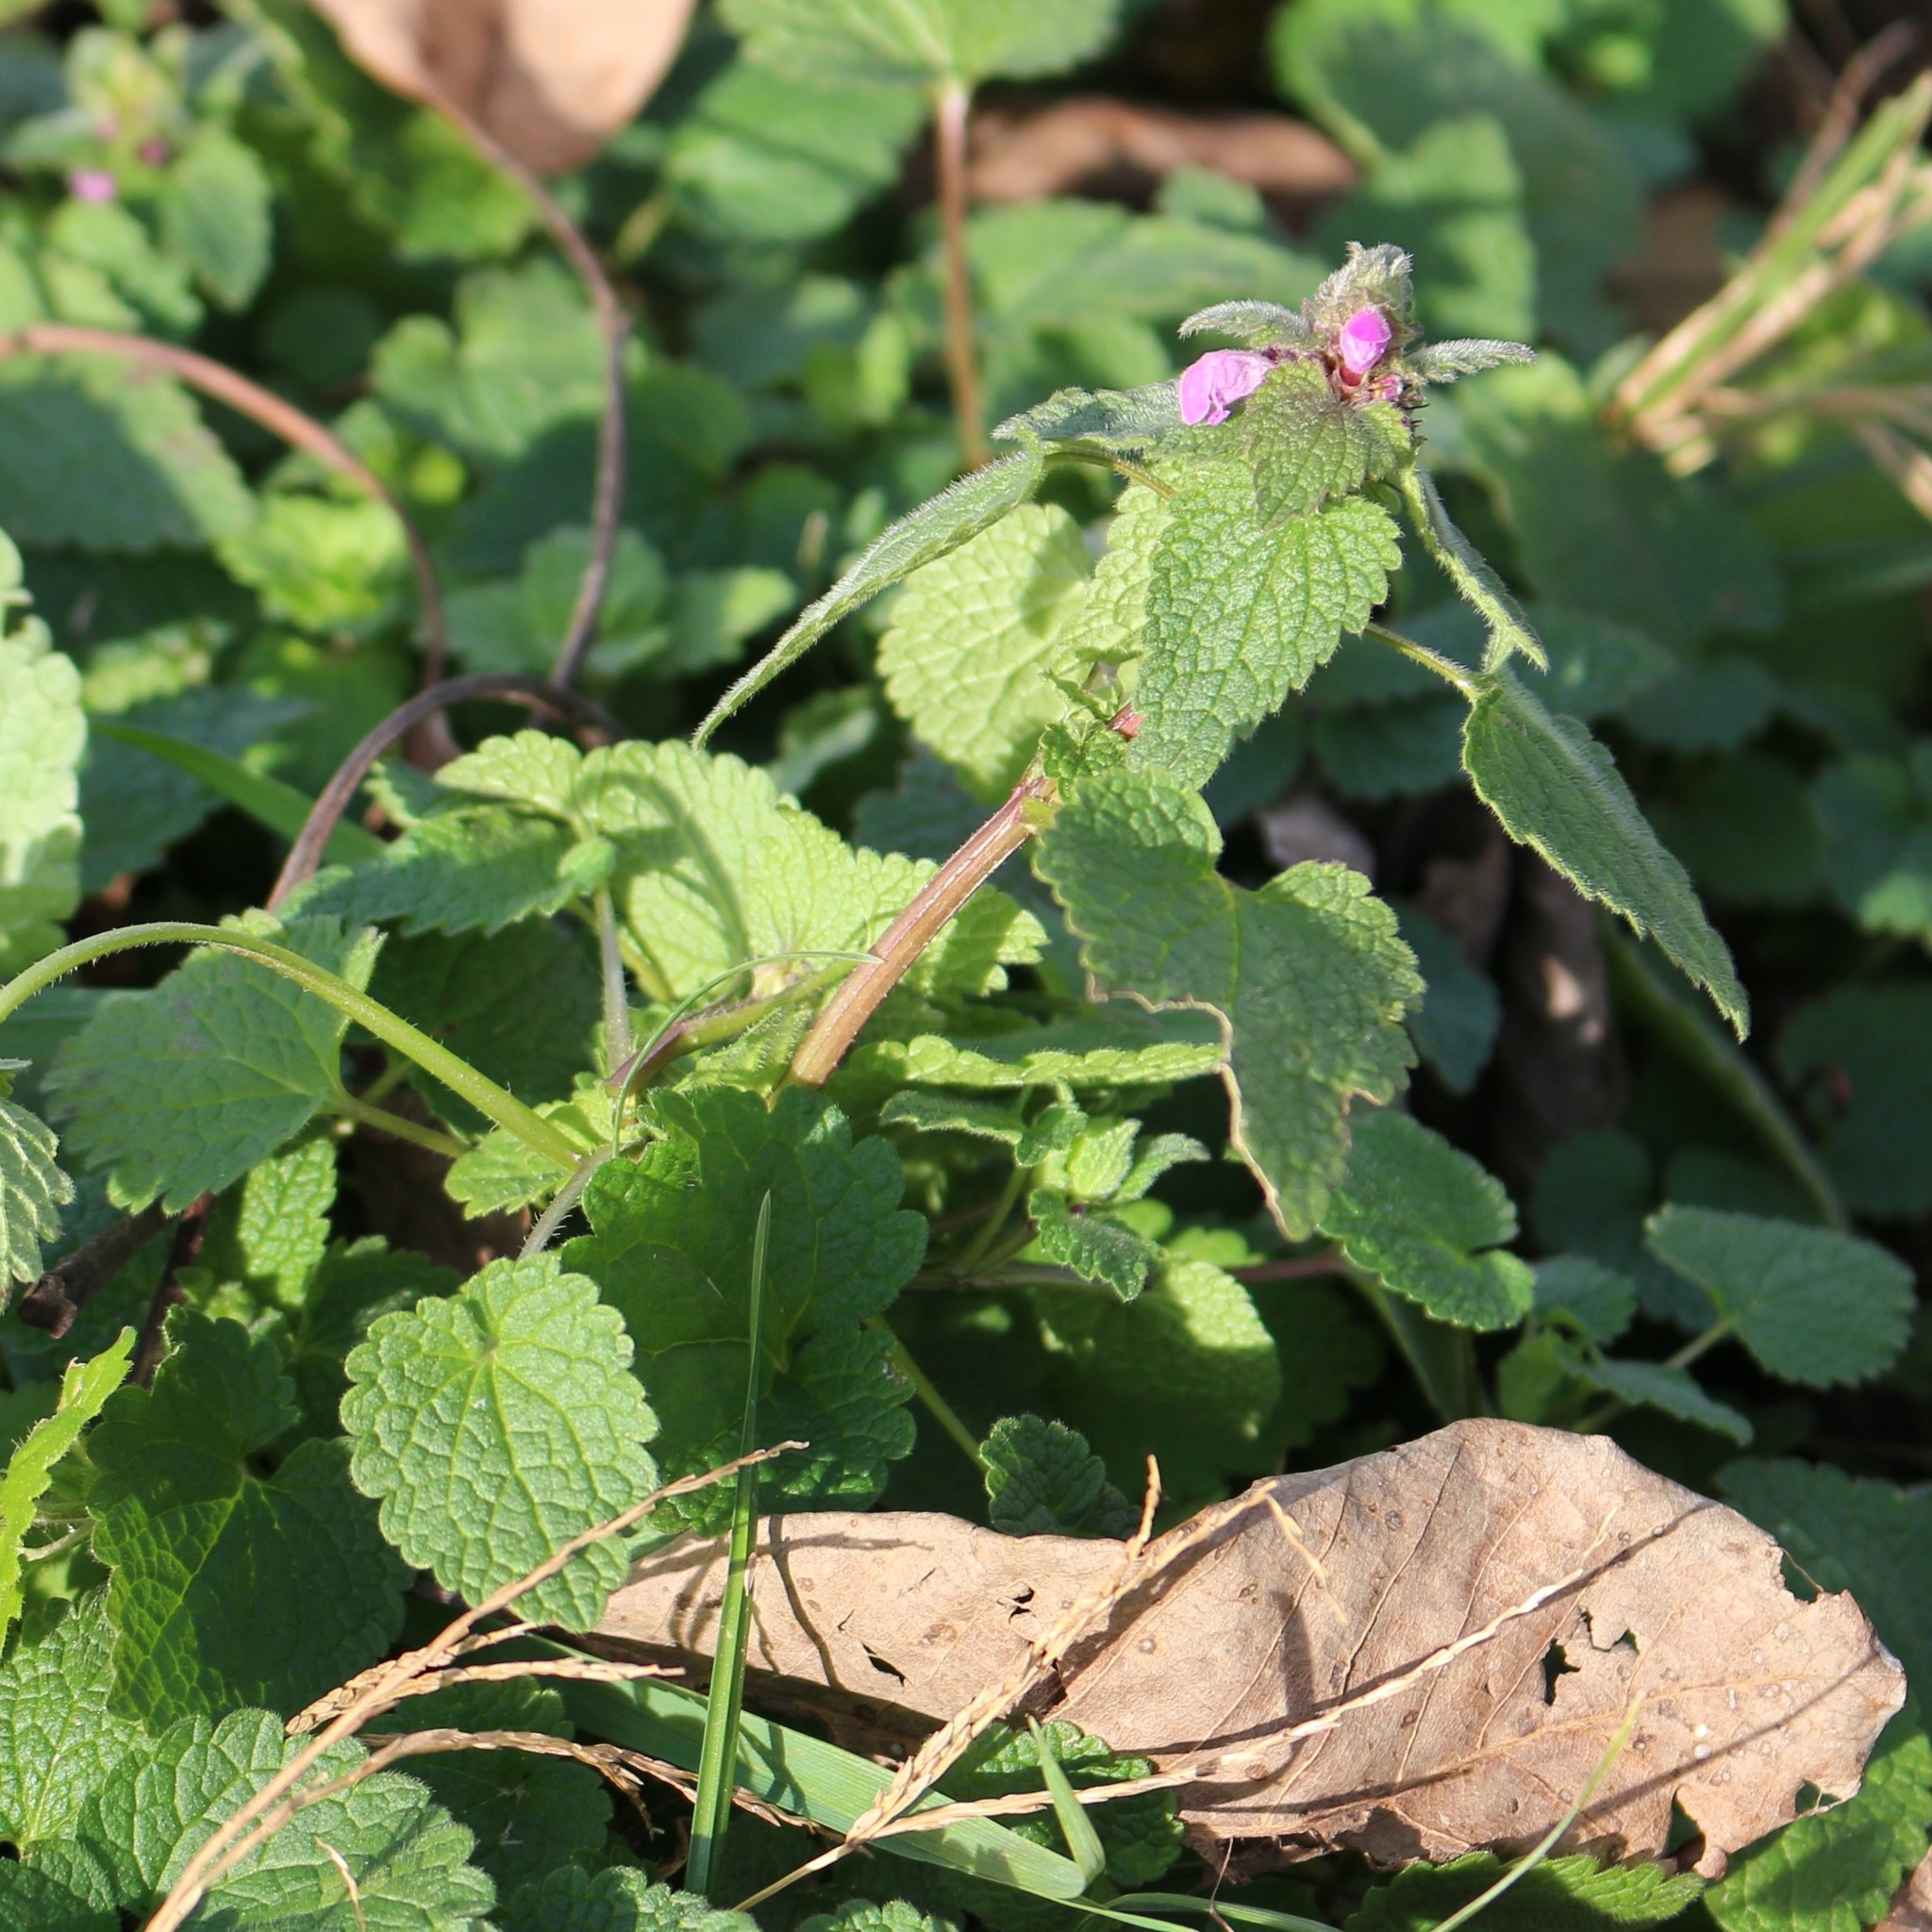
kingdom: Plantae
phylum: Tracheophyta
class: Magnoliopsida
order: Lamiales
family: Lamiaceae
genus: Lamium
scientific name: Lamium purpureum
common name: Red dead-nettle
